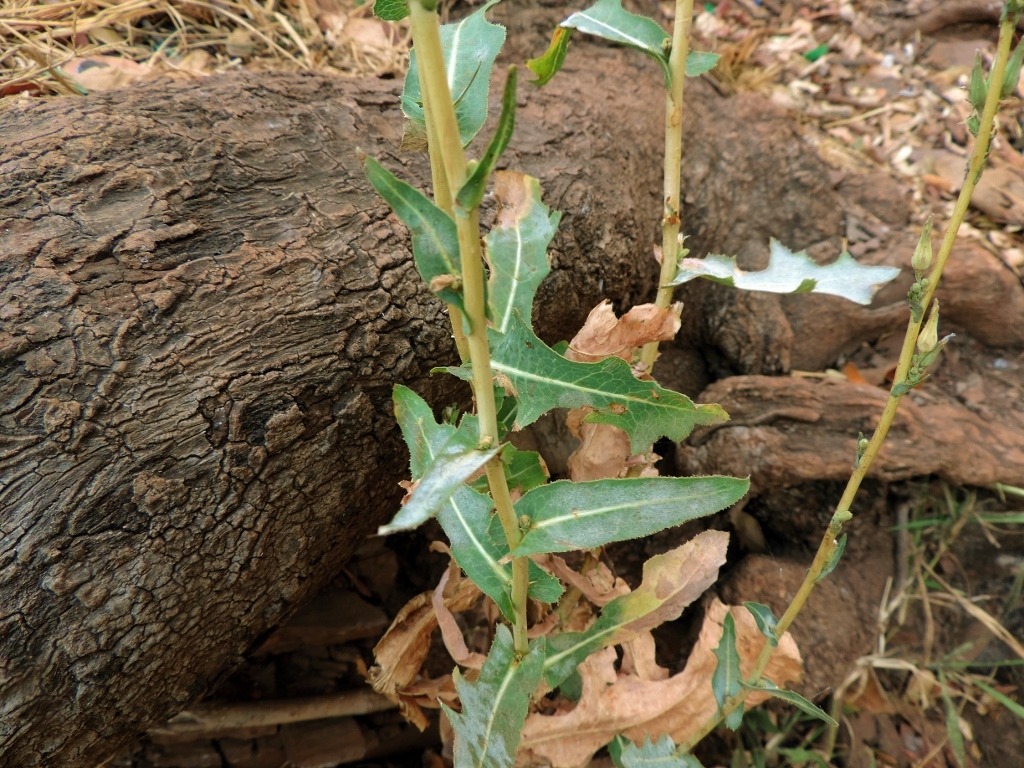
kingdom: Plantae
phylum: Tracheophyta
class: Magnoliopsida
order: Asterales
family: Asteraceae
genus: Lactuca
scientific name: Lactuca serriola
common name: Prickly lettuce
